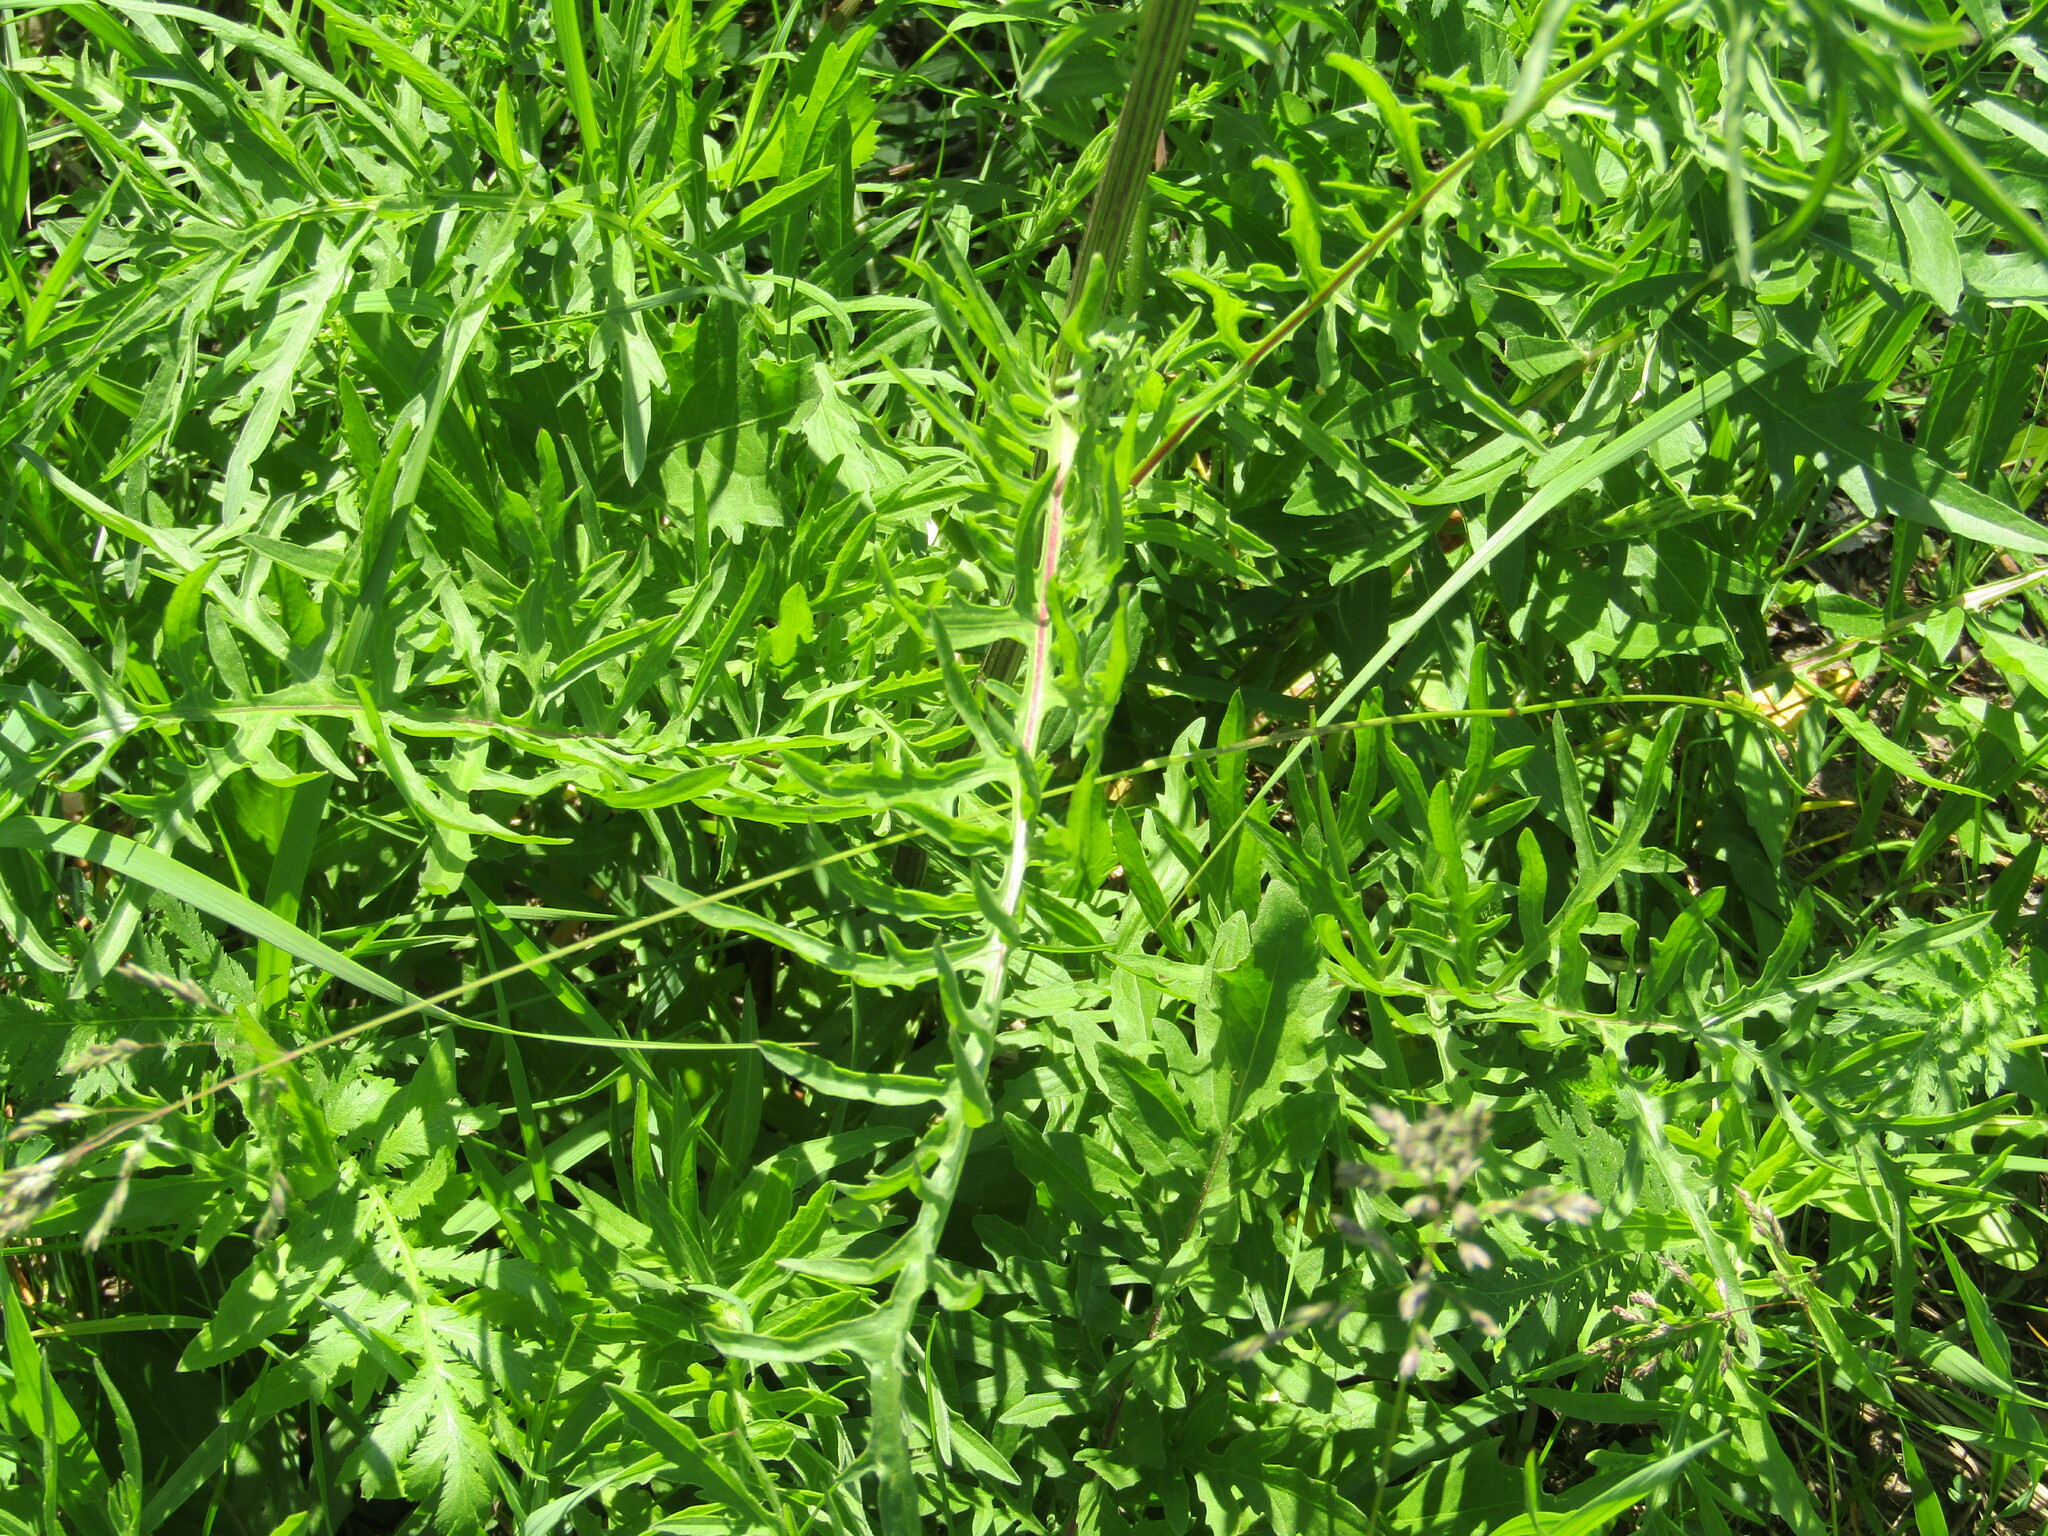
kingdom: Plantae
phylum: Tracheophyta
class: Magnoliopsida
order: Asterales
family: Asteraceae
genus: Centaurea
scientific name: Centaurea scabiosa
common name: Greater knapweed
